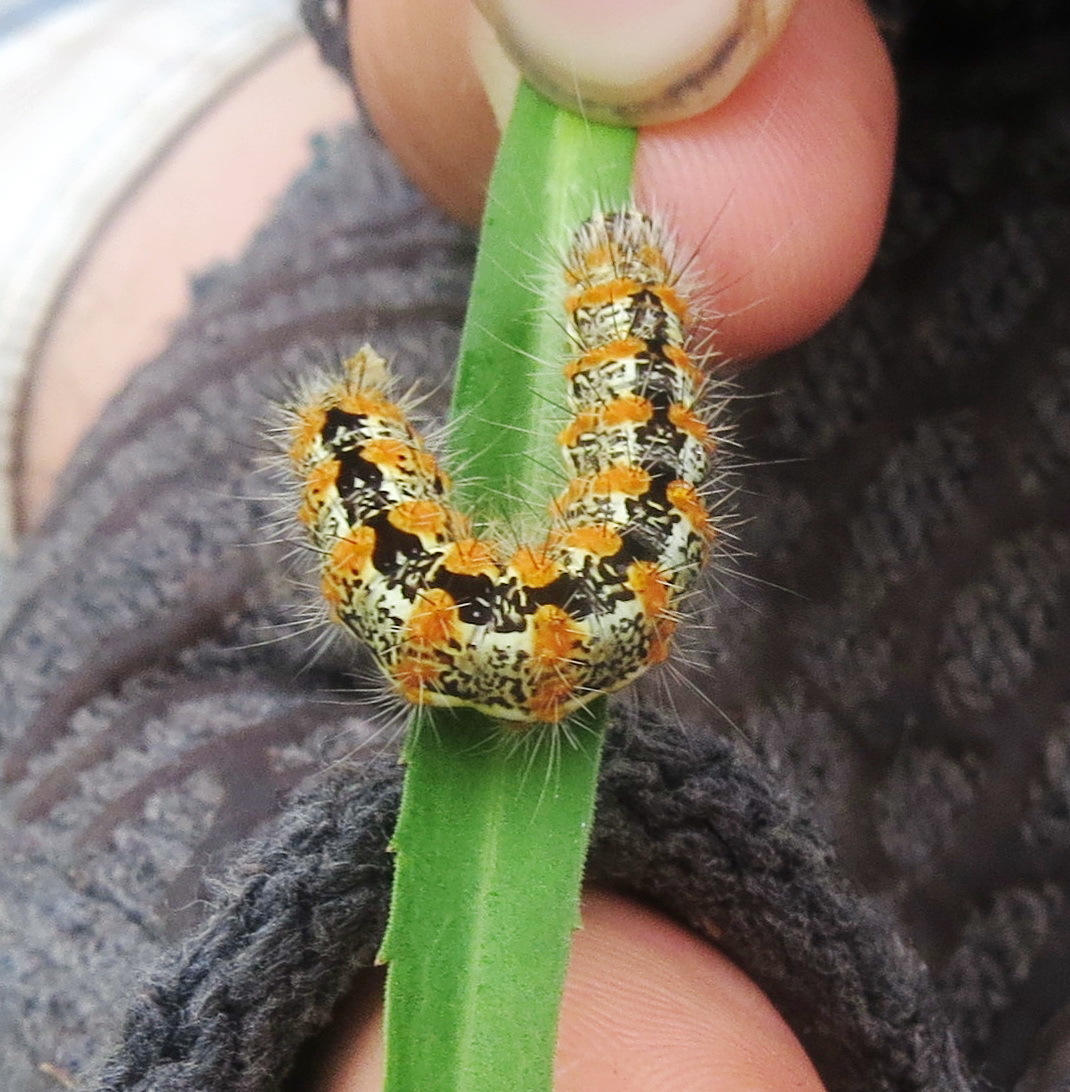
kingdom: Animalia
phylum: Arthropoda
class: Insecta
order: Lepidoptera
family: Noctuidae
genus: Acronicta
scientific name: Acronicta insularis
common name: Henry's marsh moth
